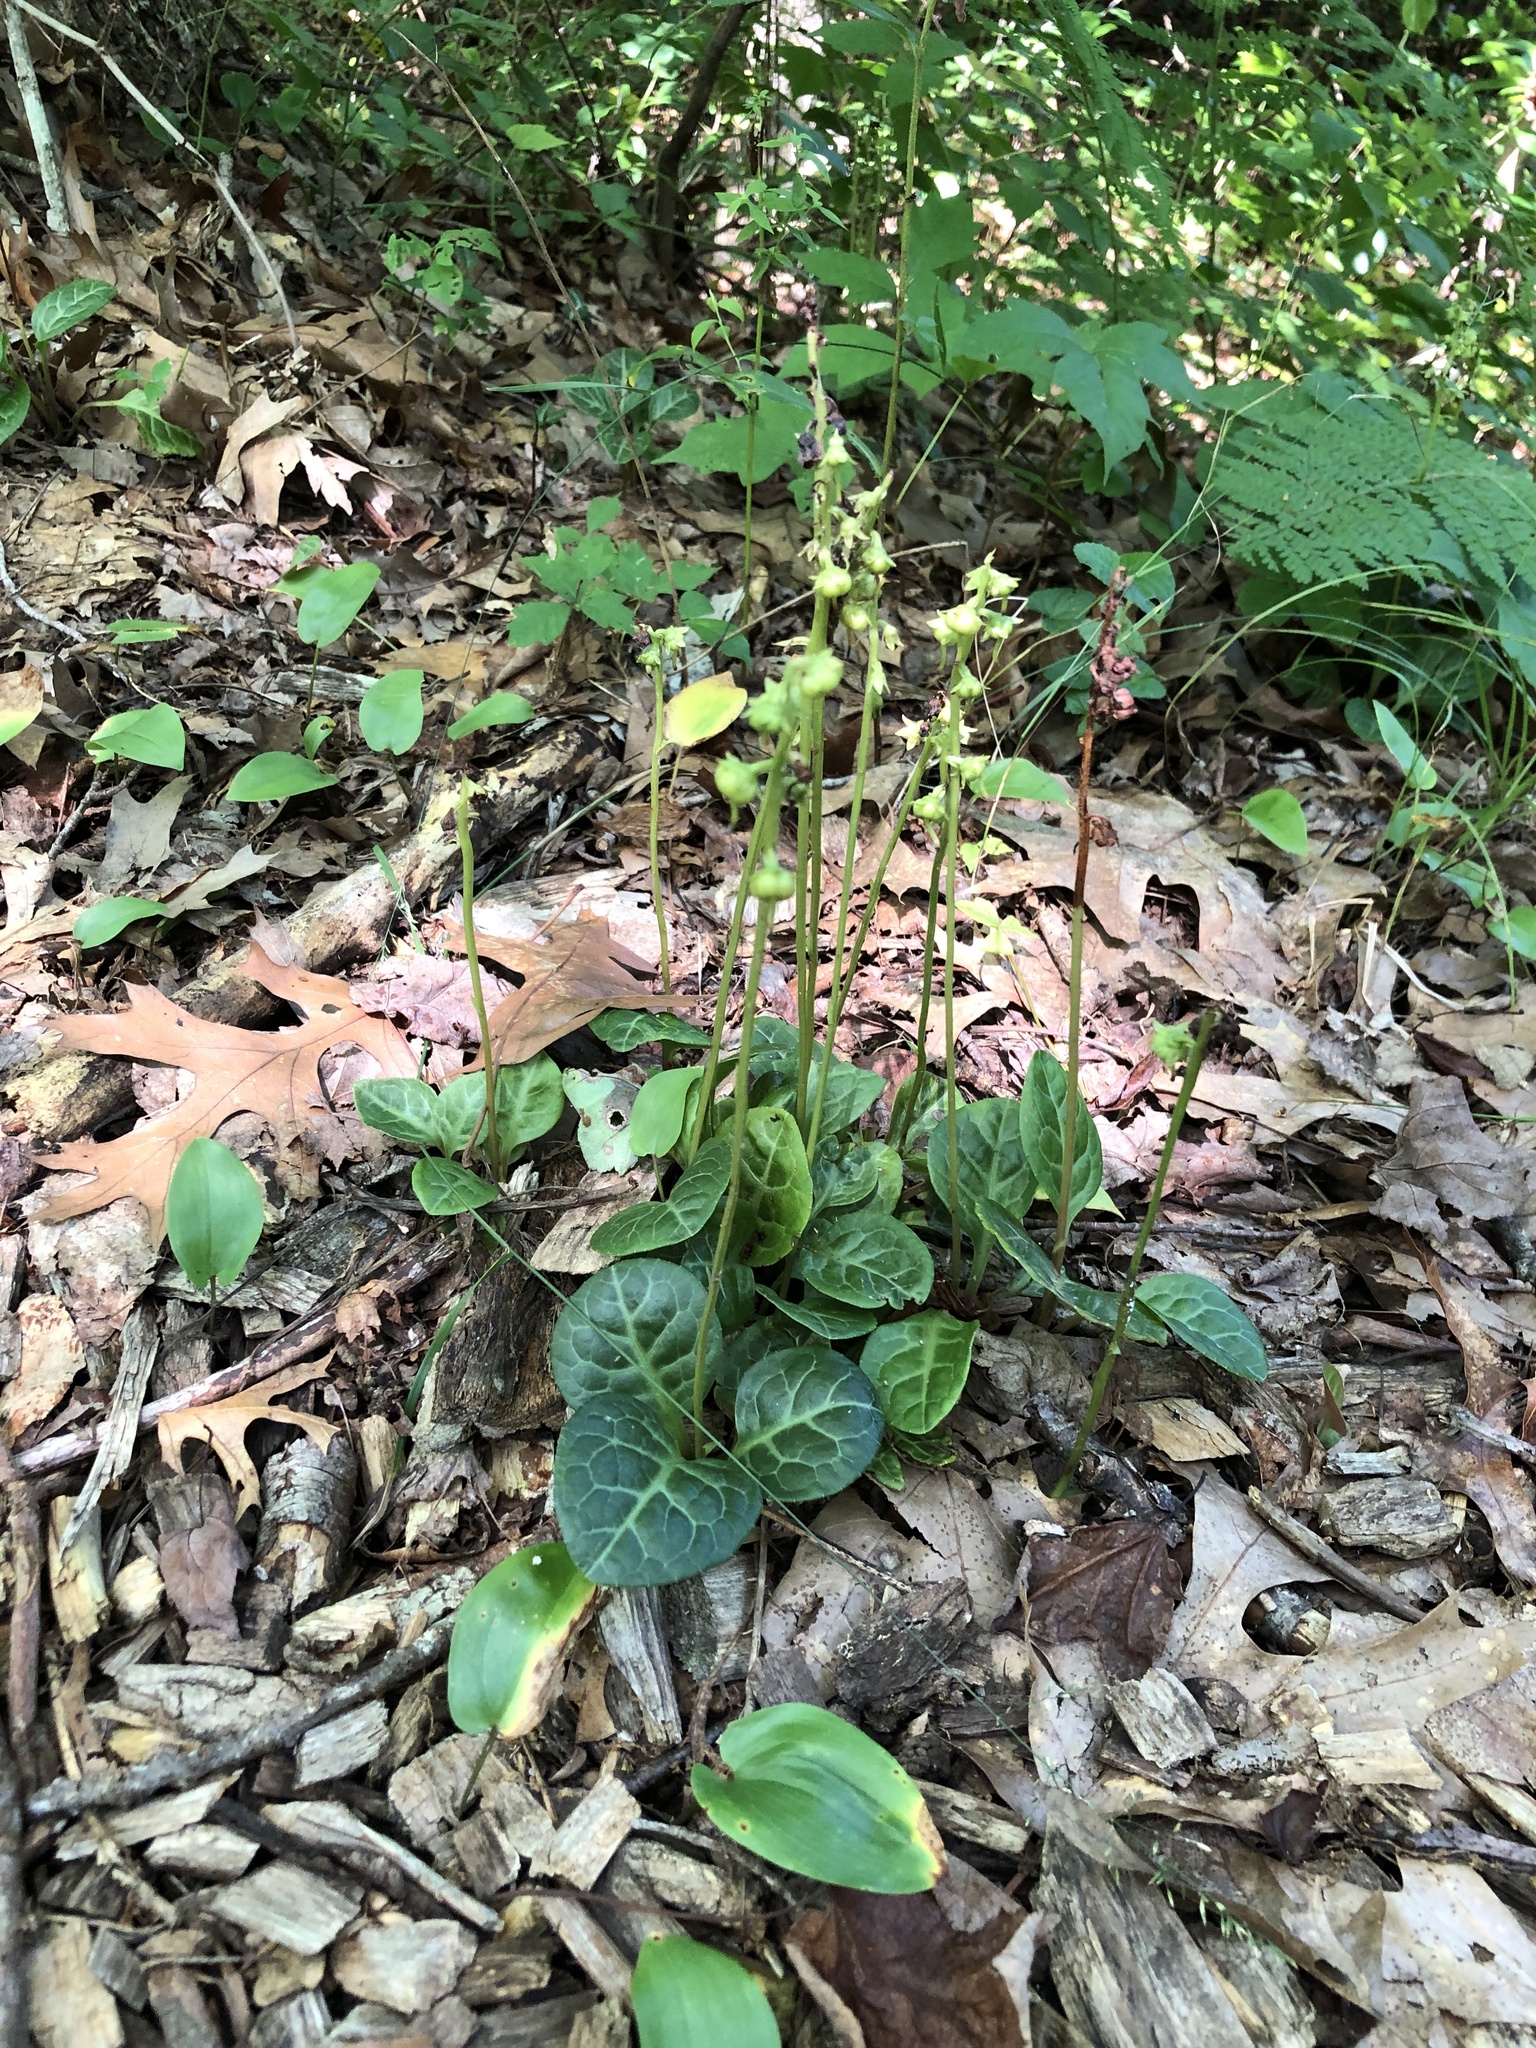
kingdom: Plantae
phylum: Tracheophyta
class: Magnoliopsida
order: Ericales
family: Ericaceae
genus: Pyrola
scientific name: Pyrola americana
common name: American wintergreen
